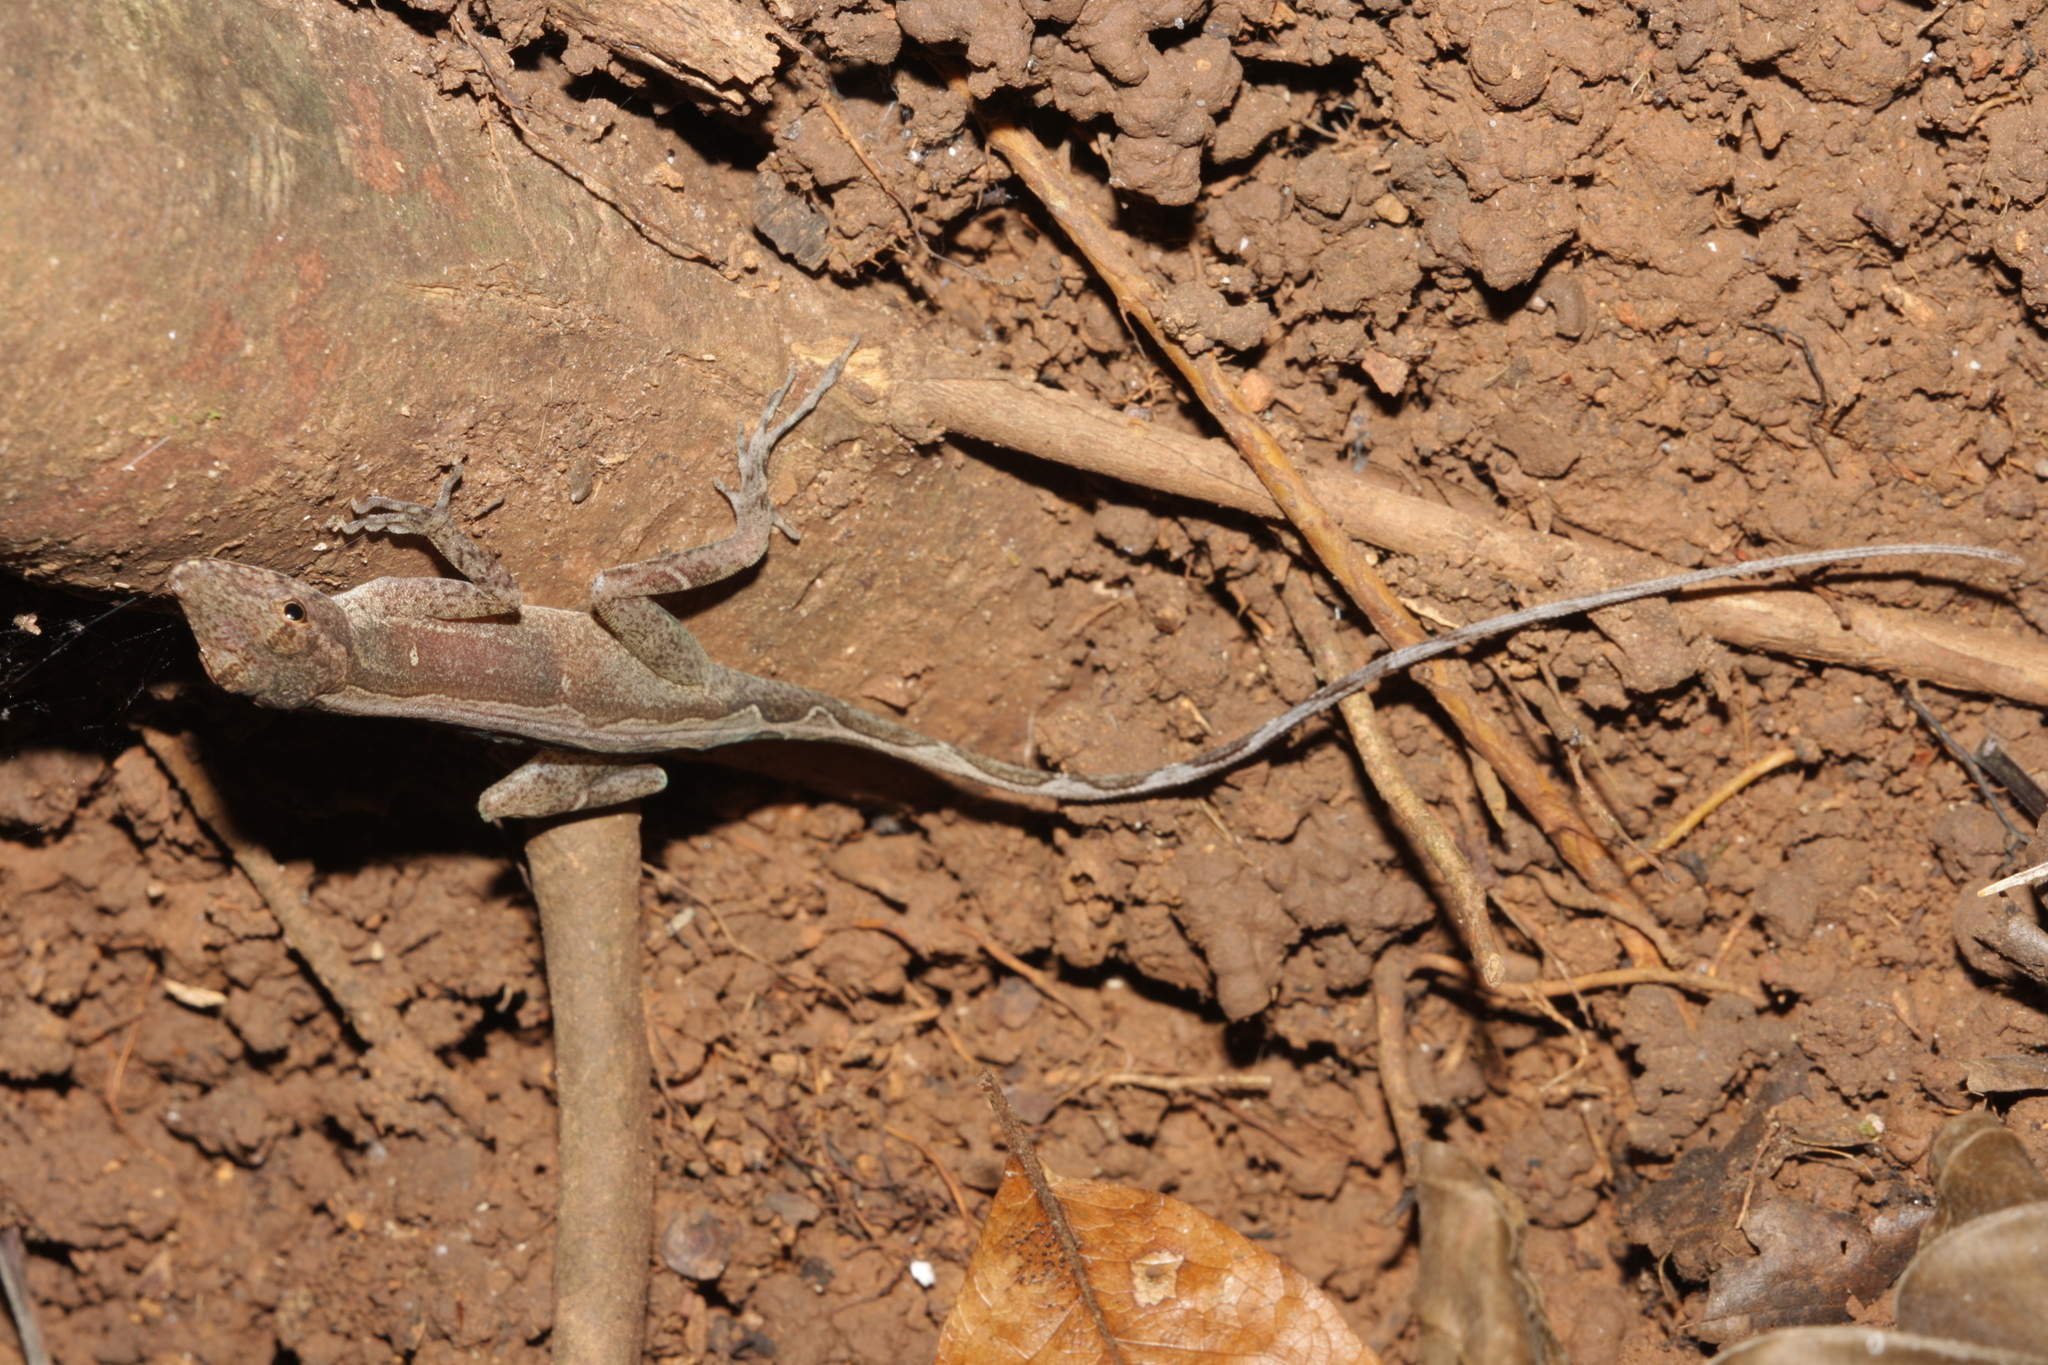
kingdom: Animalia
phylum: Chordata
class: Squamata
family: Dactyloidae
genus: Anolis
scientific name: Anolis osa
